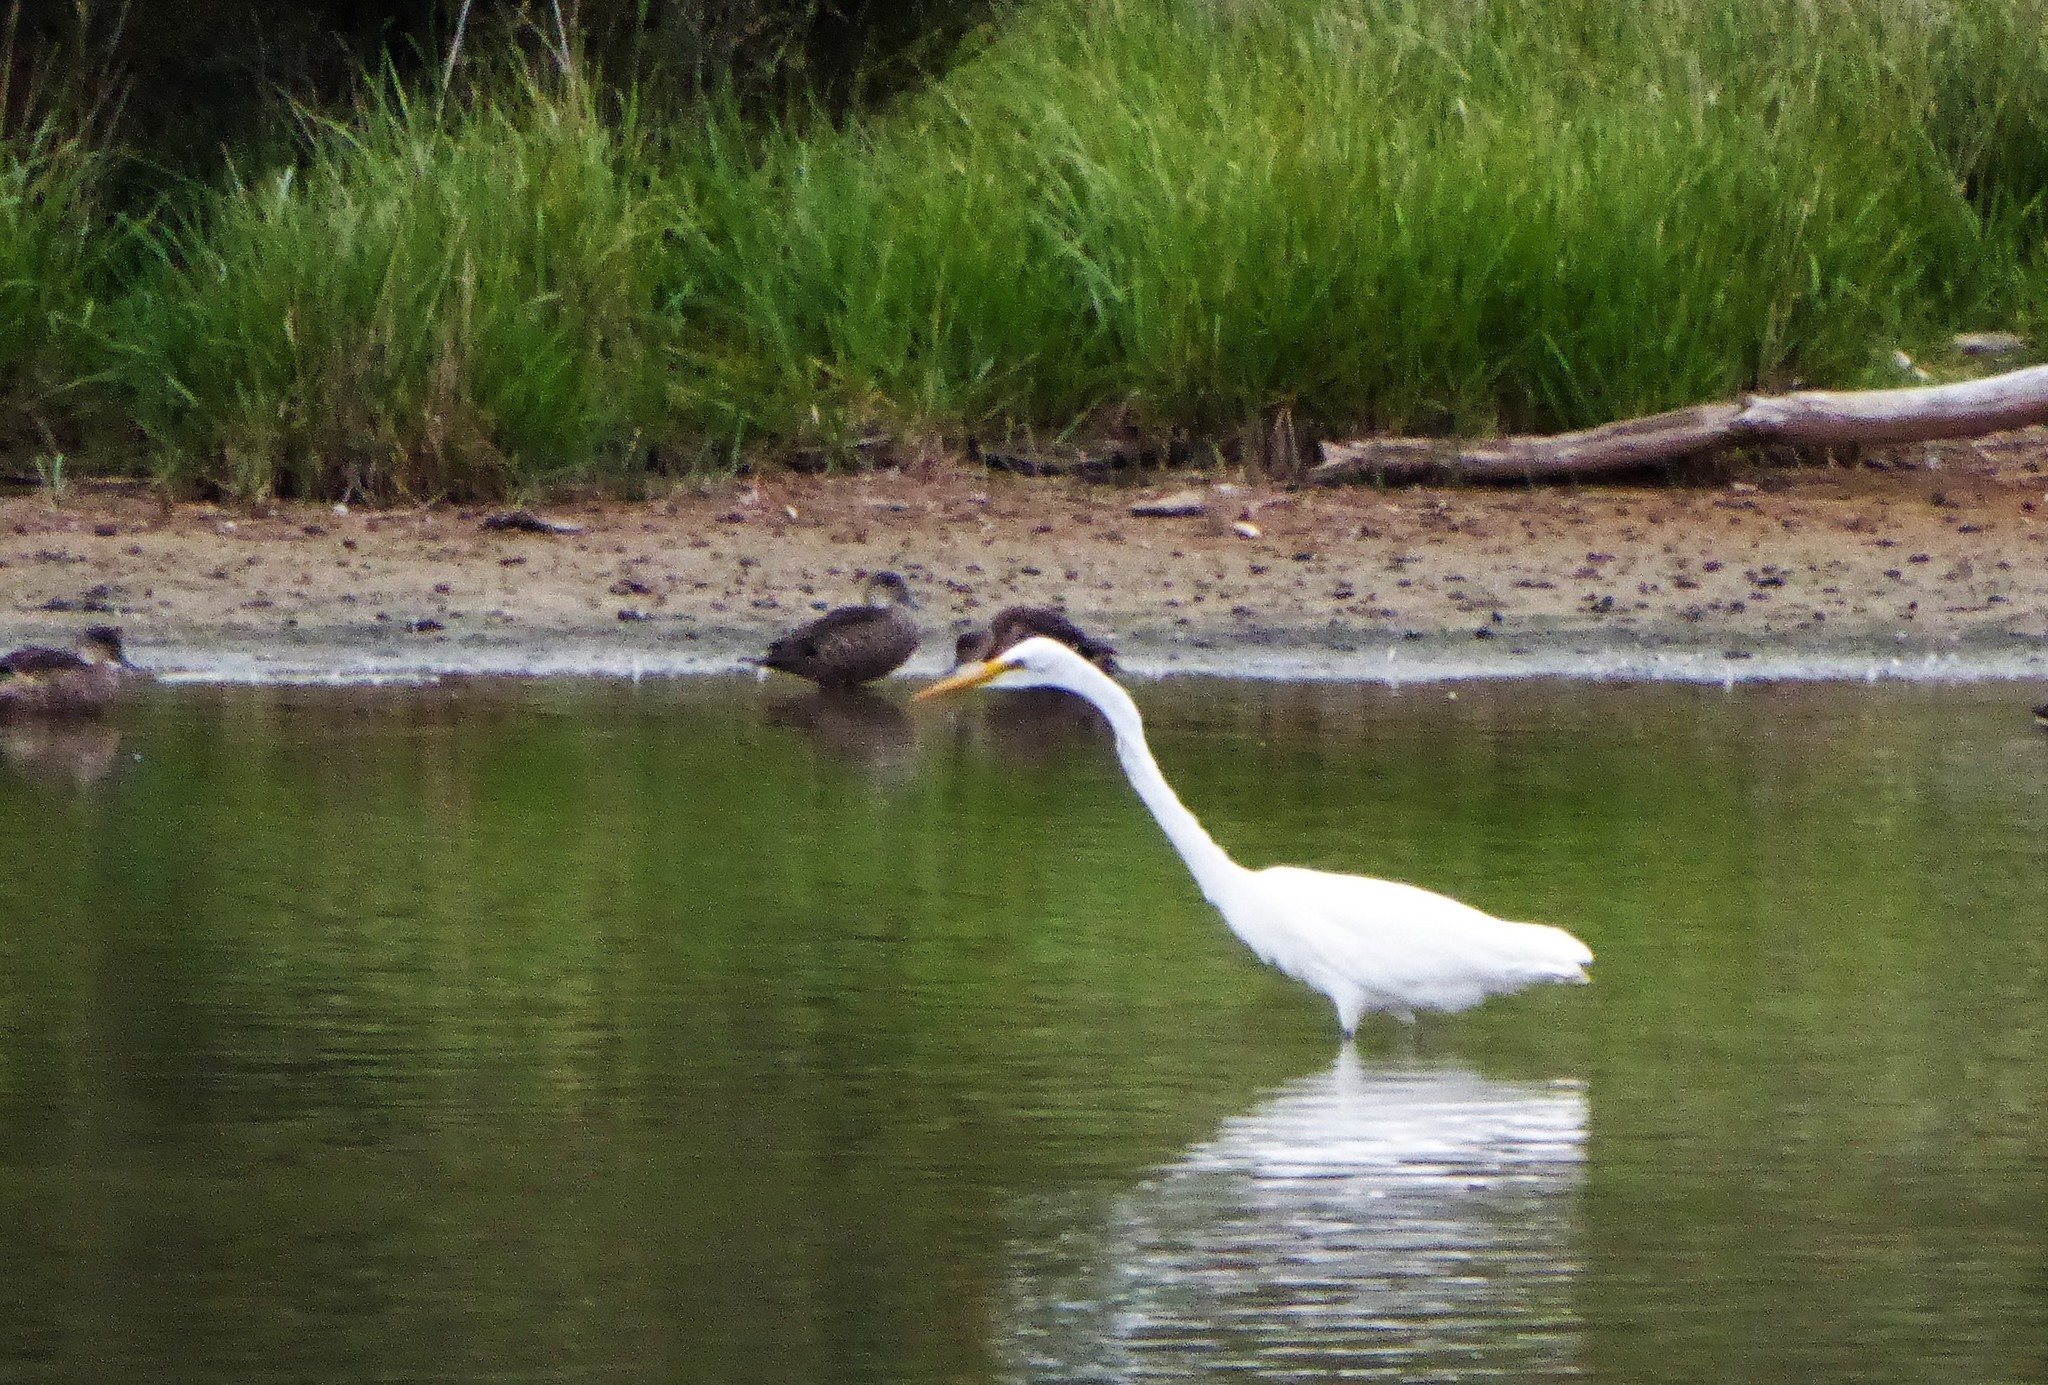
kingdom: Animalia
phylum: Chordata
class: Aves
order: Pelecaniformes
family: Ardeidae
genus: Ardea
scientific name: Ardea modesta
